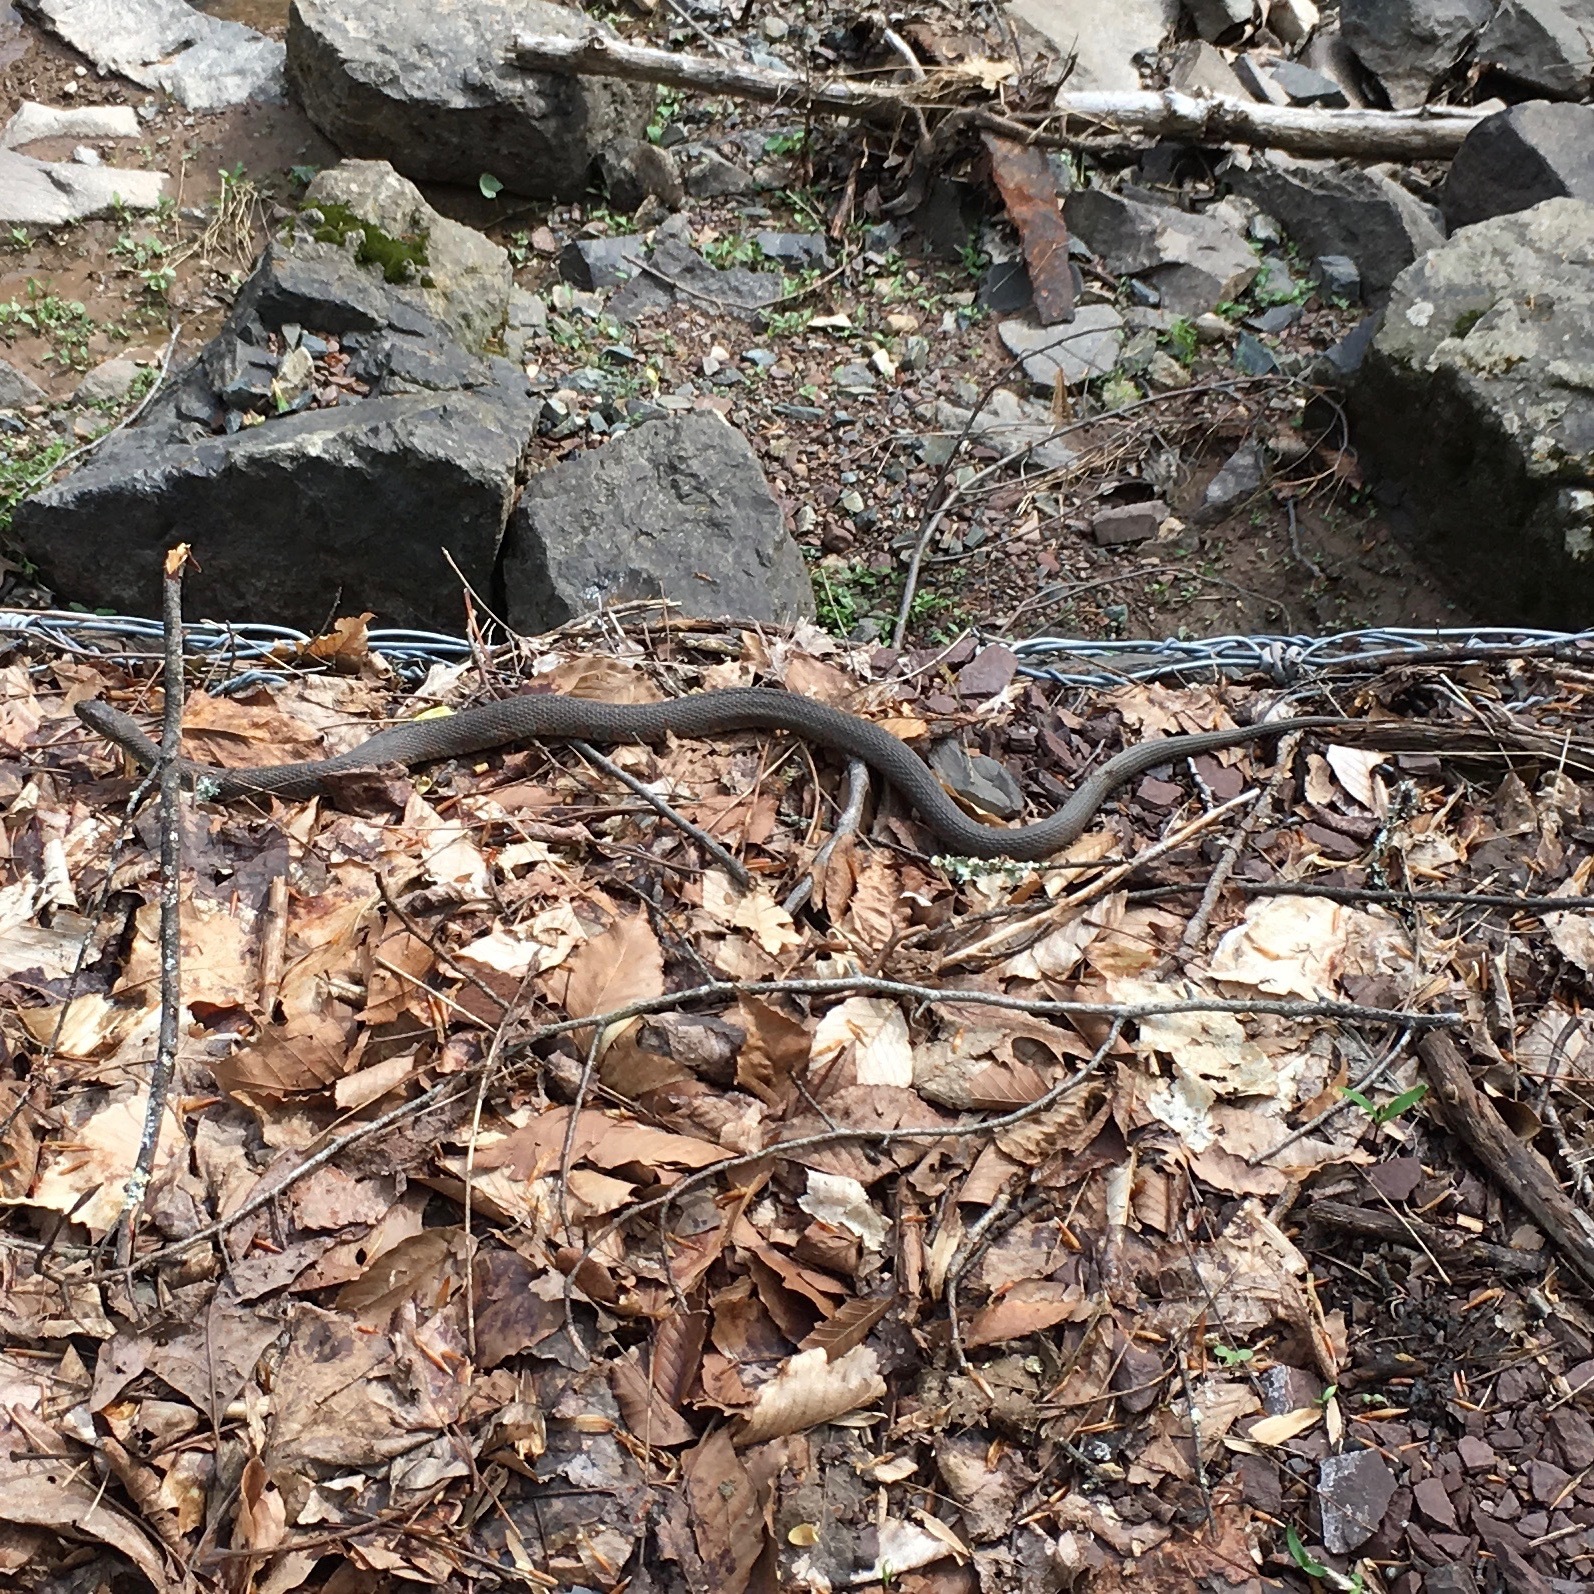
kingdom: Animalia
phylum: Chordata
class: Squamata
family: Colubridae
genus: Nerodia
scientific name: Nerodia sipedon
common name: Northern water snake
